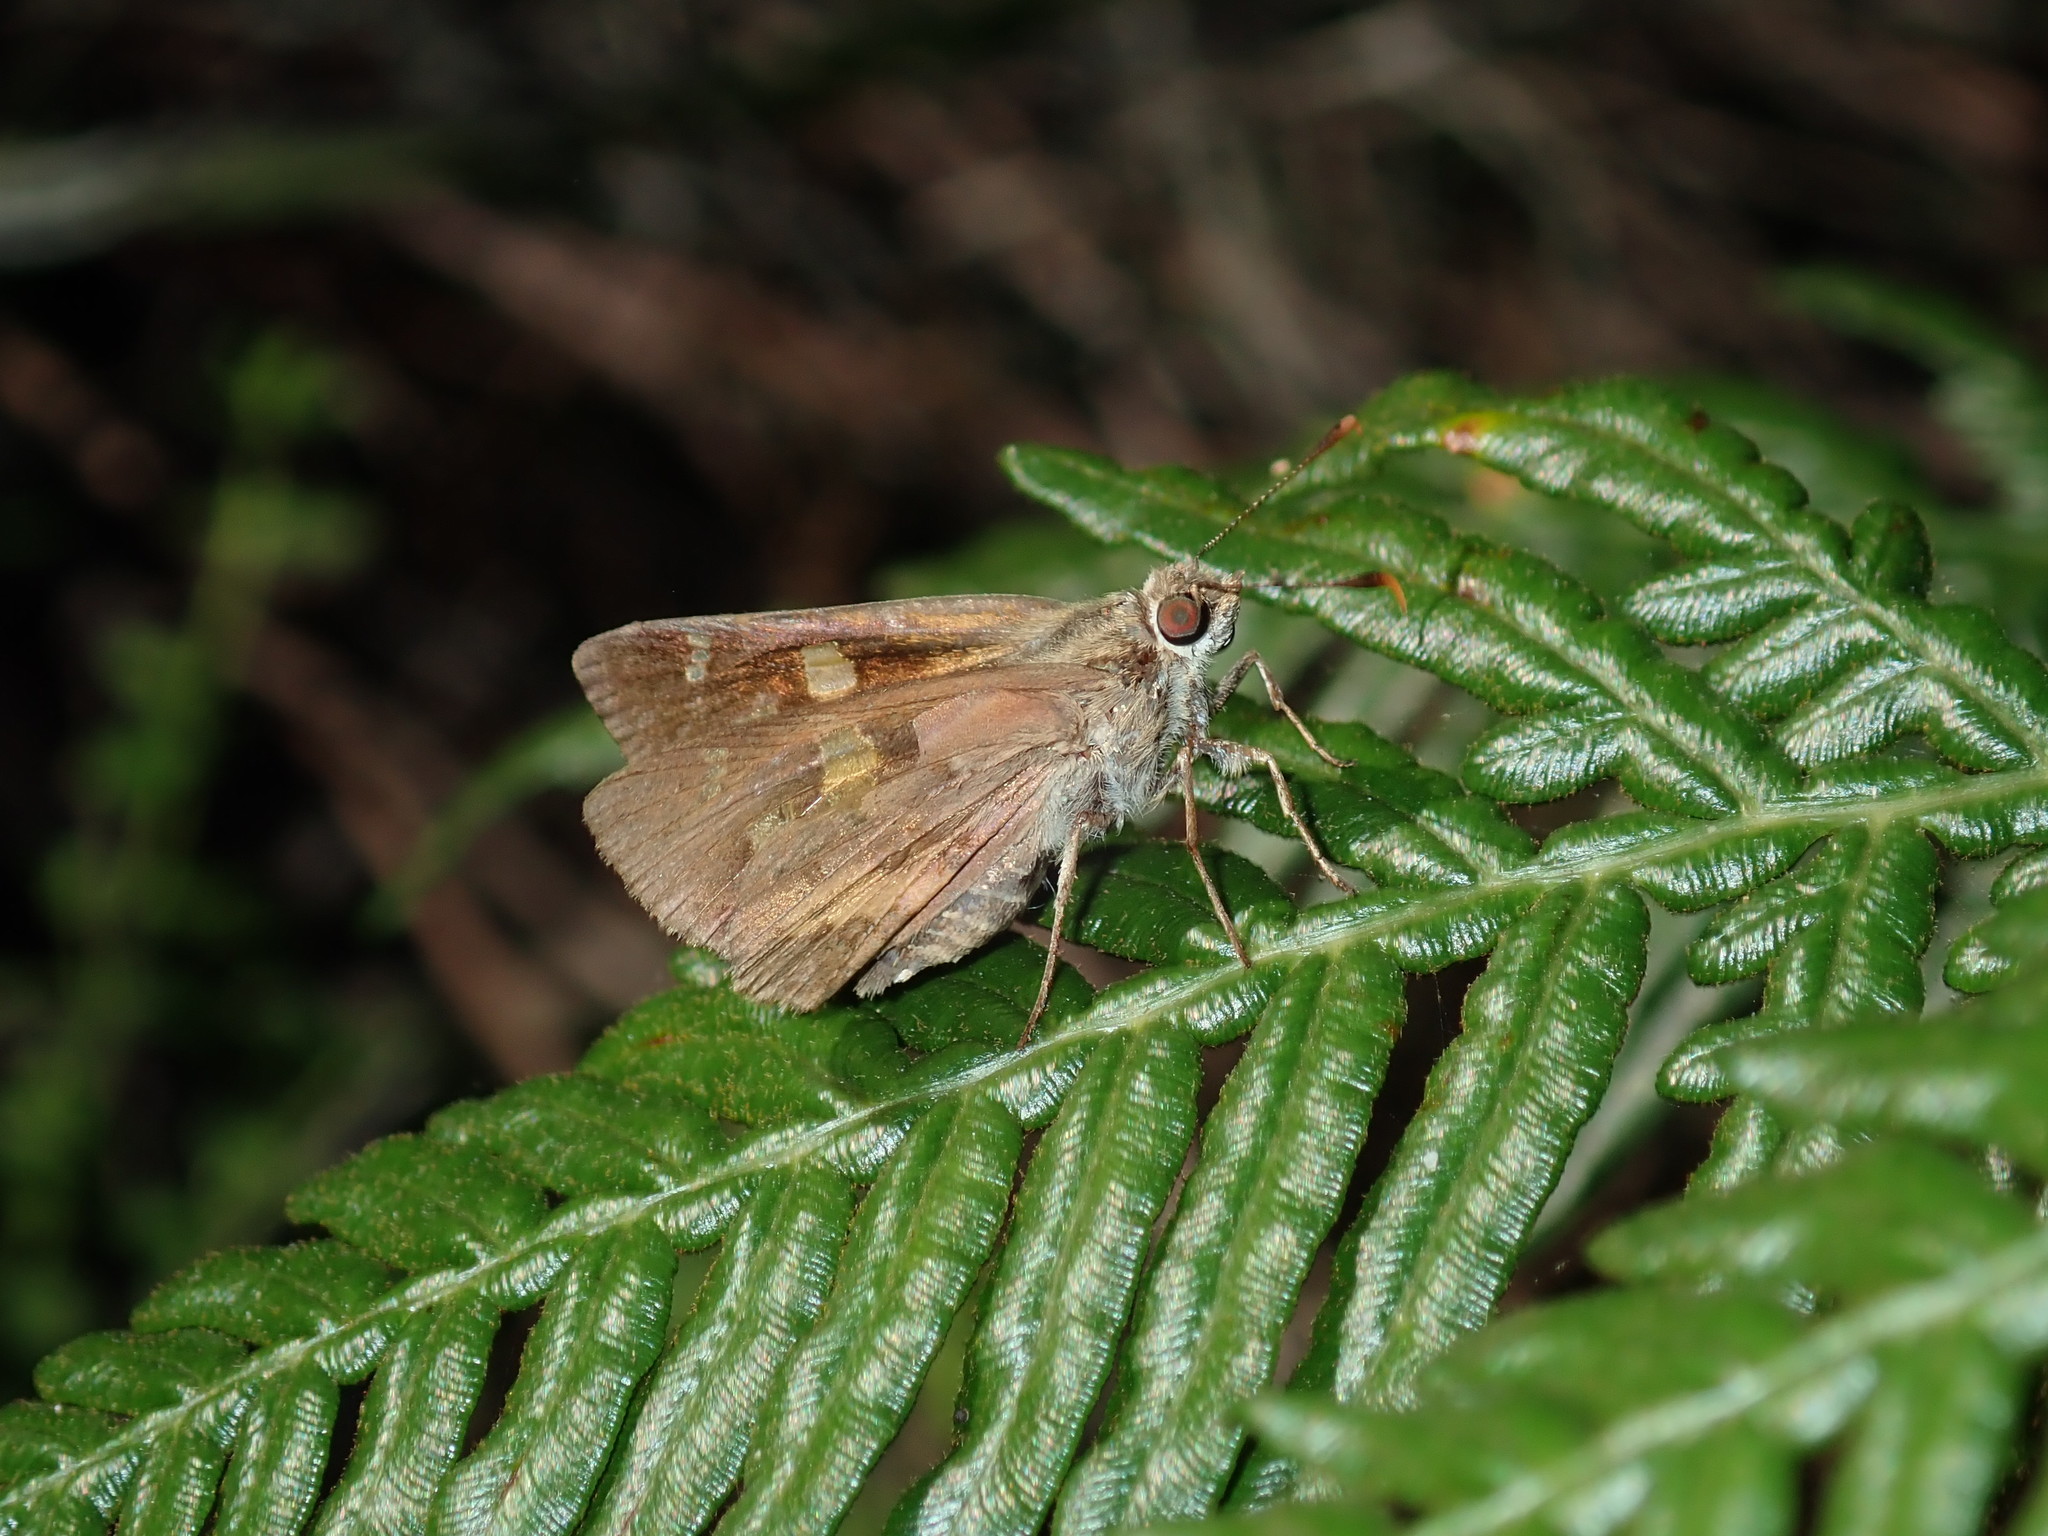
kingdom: Animalia
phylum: Arthropoda
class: Insecta
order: Lepidoptera
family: Hesperiidae
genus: Trapezites
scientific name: Trapezites praxedes
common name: Southern silver ochre
